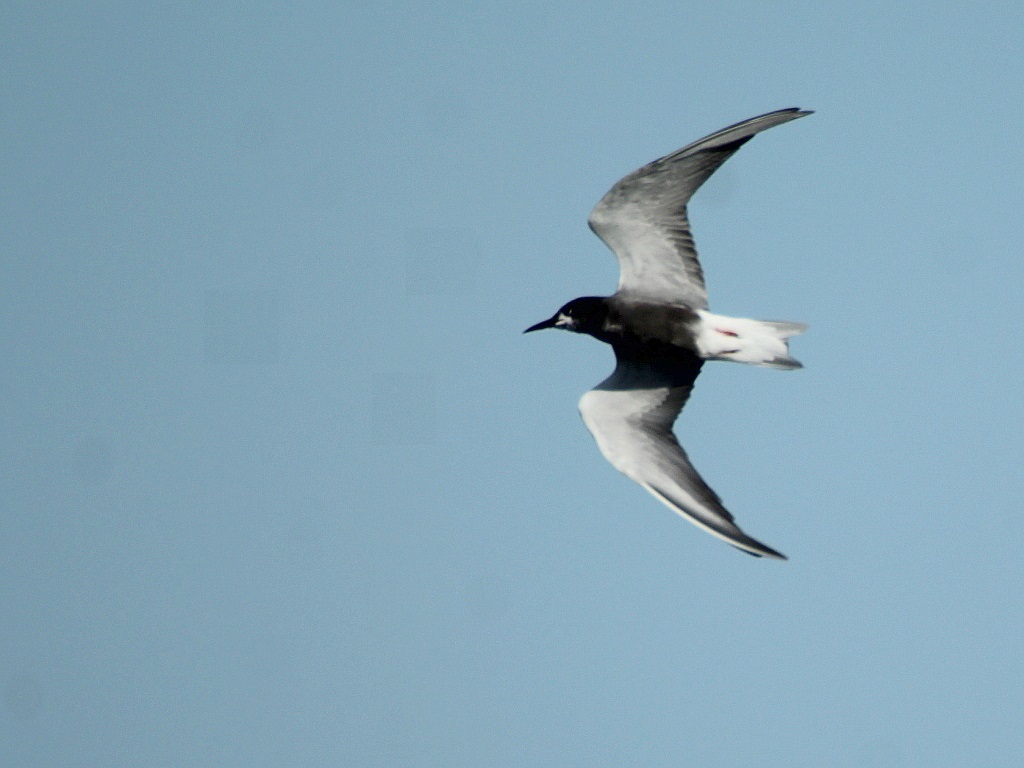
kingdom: Animalia
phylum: Chordata
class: Aves
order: Charadriiformes
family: Laridae
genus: Chlidonias
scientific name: Chlidonias niger
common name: Black tern
